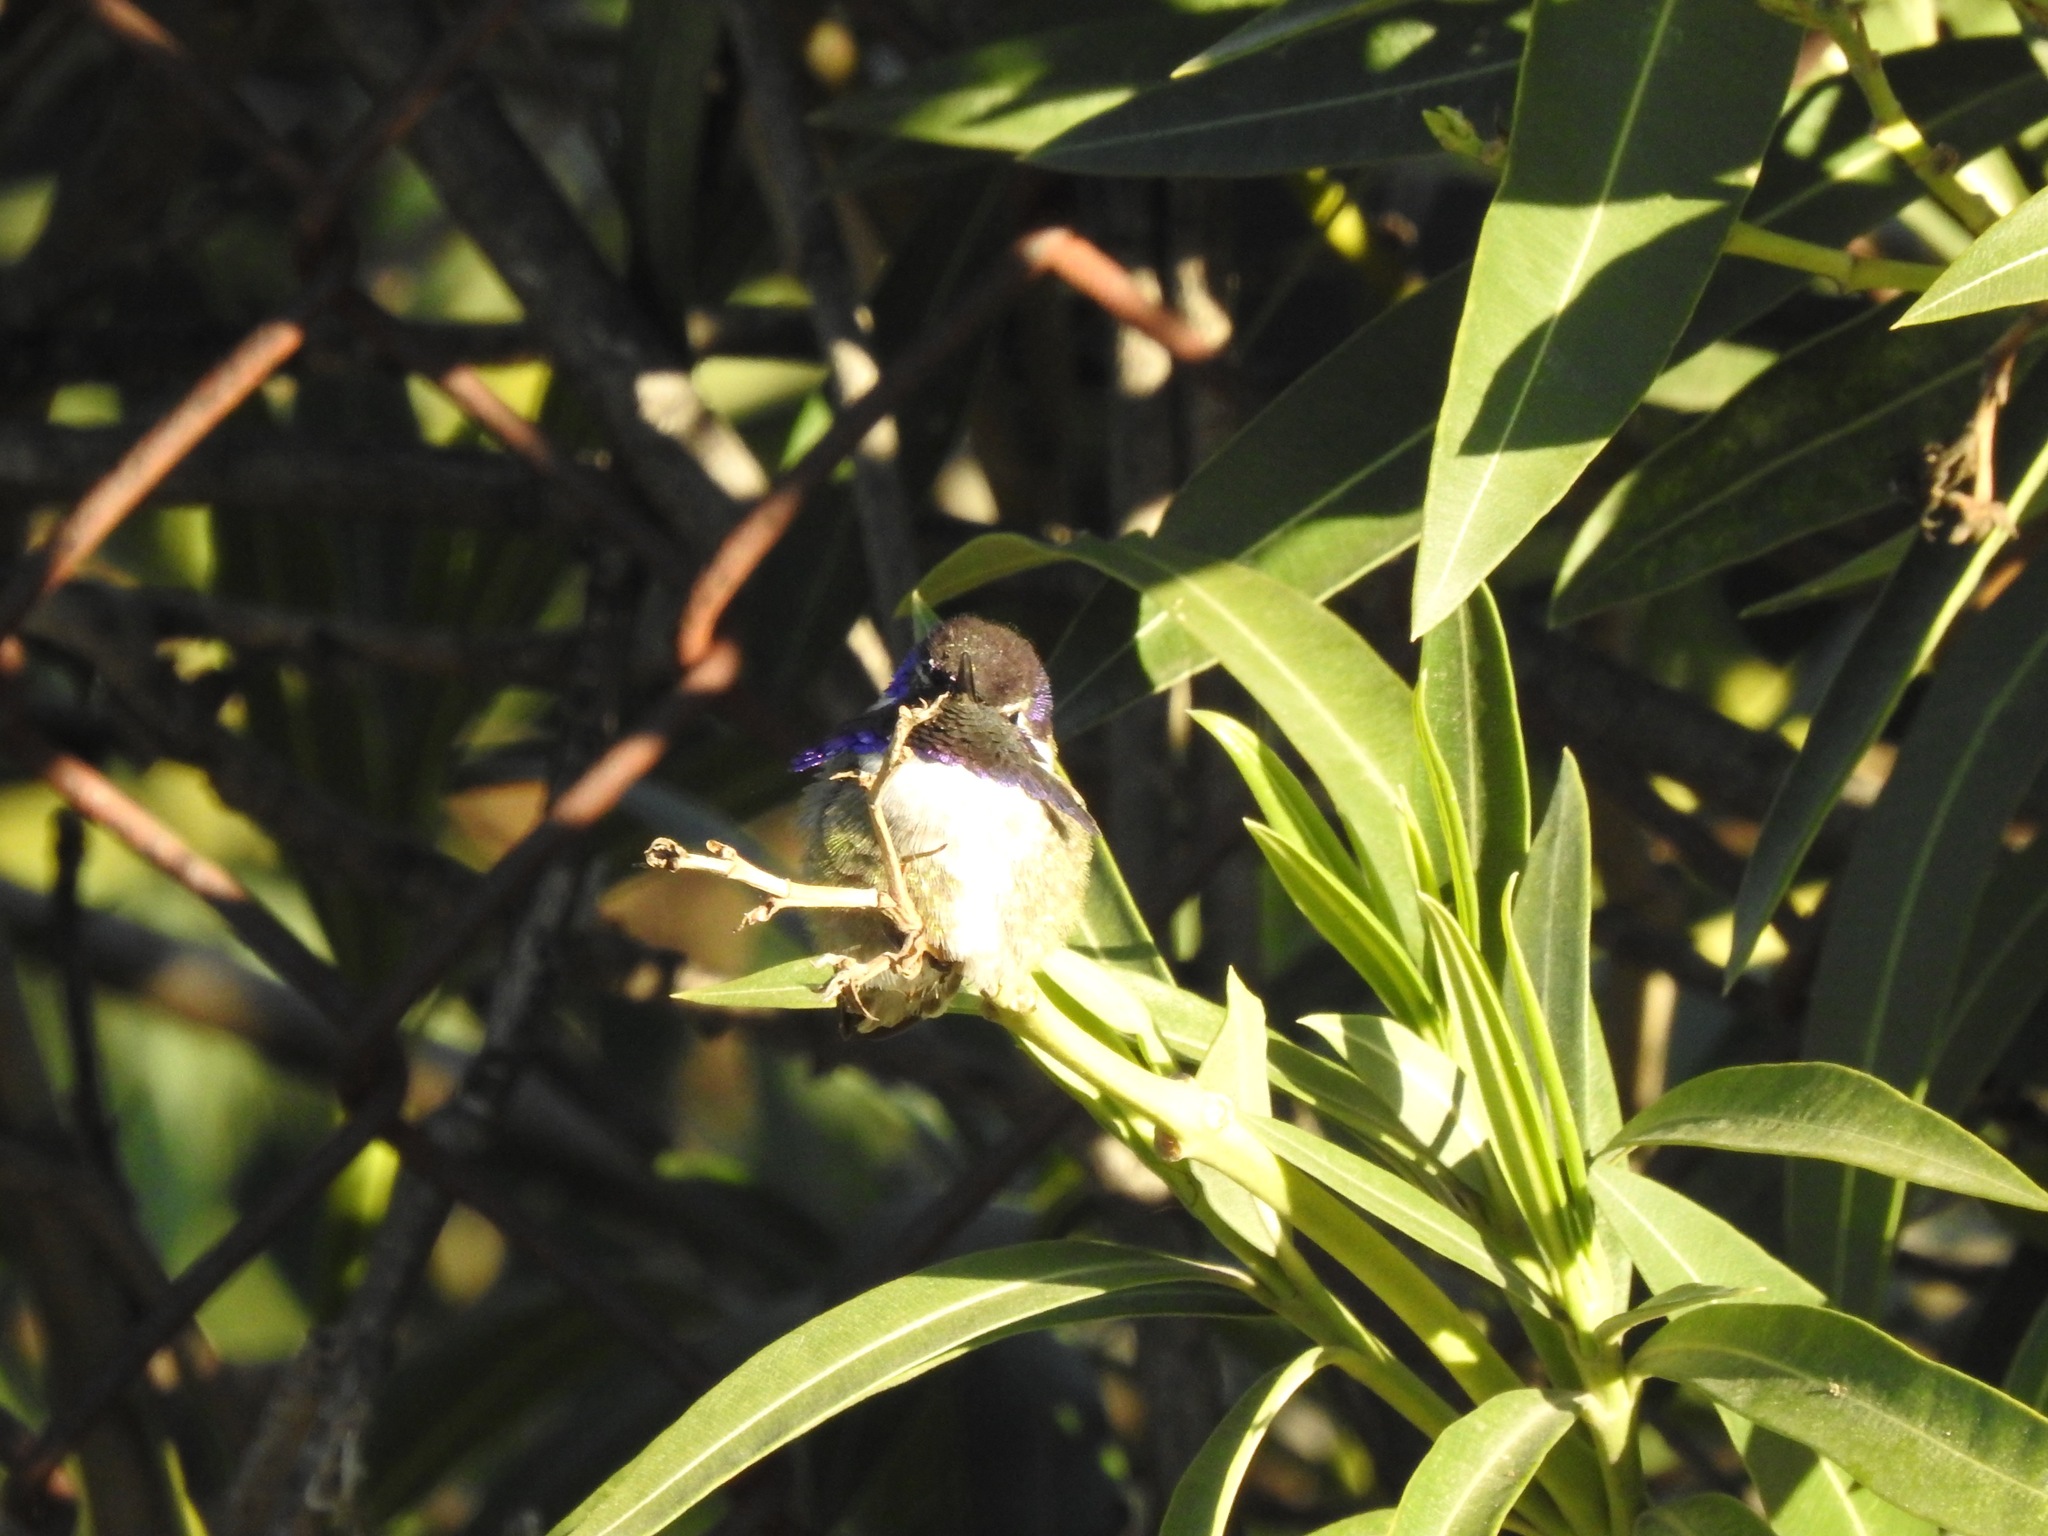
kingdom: Animalia
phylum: Chordata
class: Aves
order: Apodiformes
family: Trochilidae
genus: Calypte
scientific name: Calypte costae
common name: Costa's hummingbird
